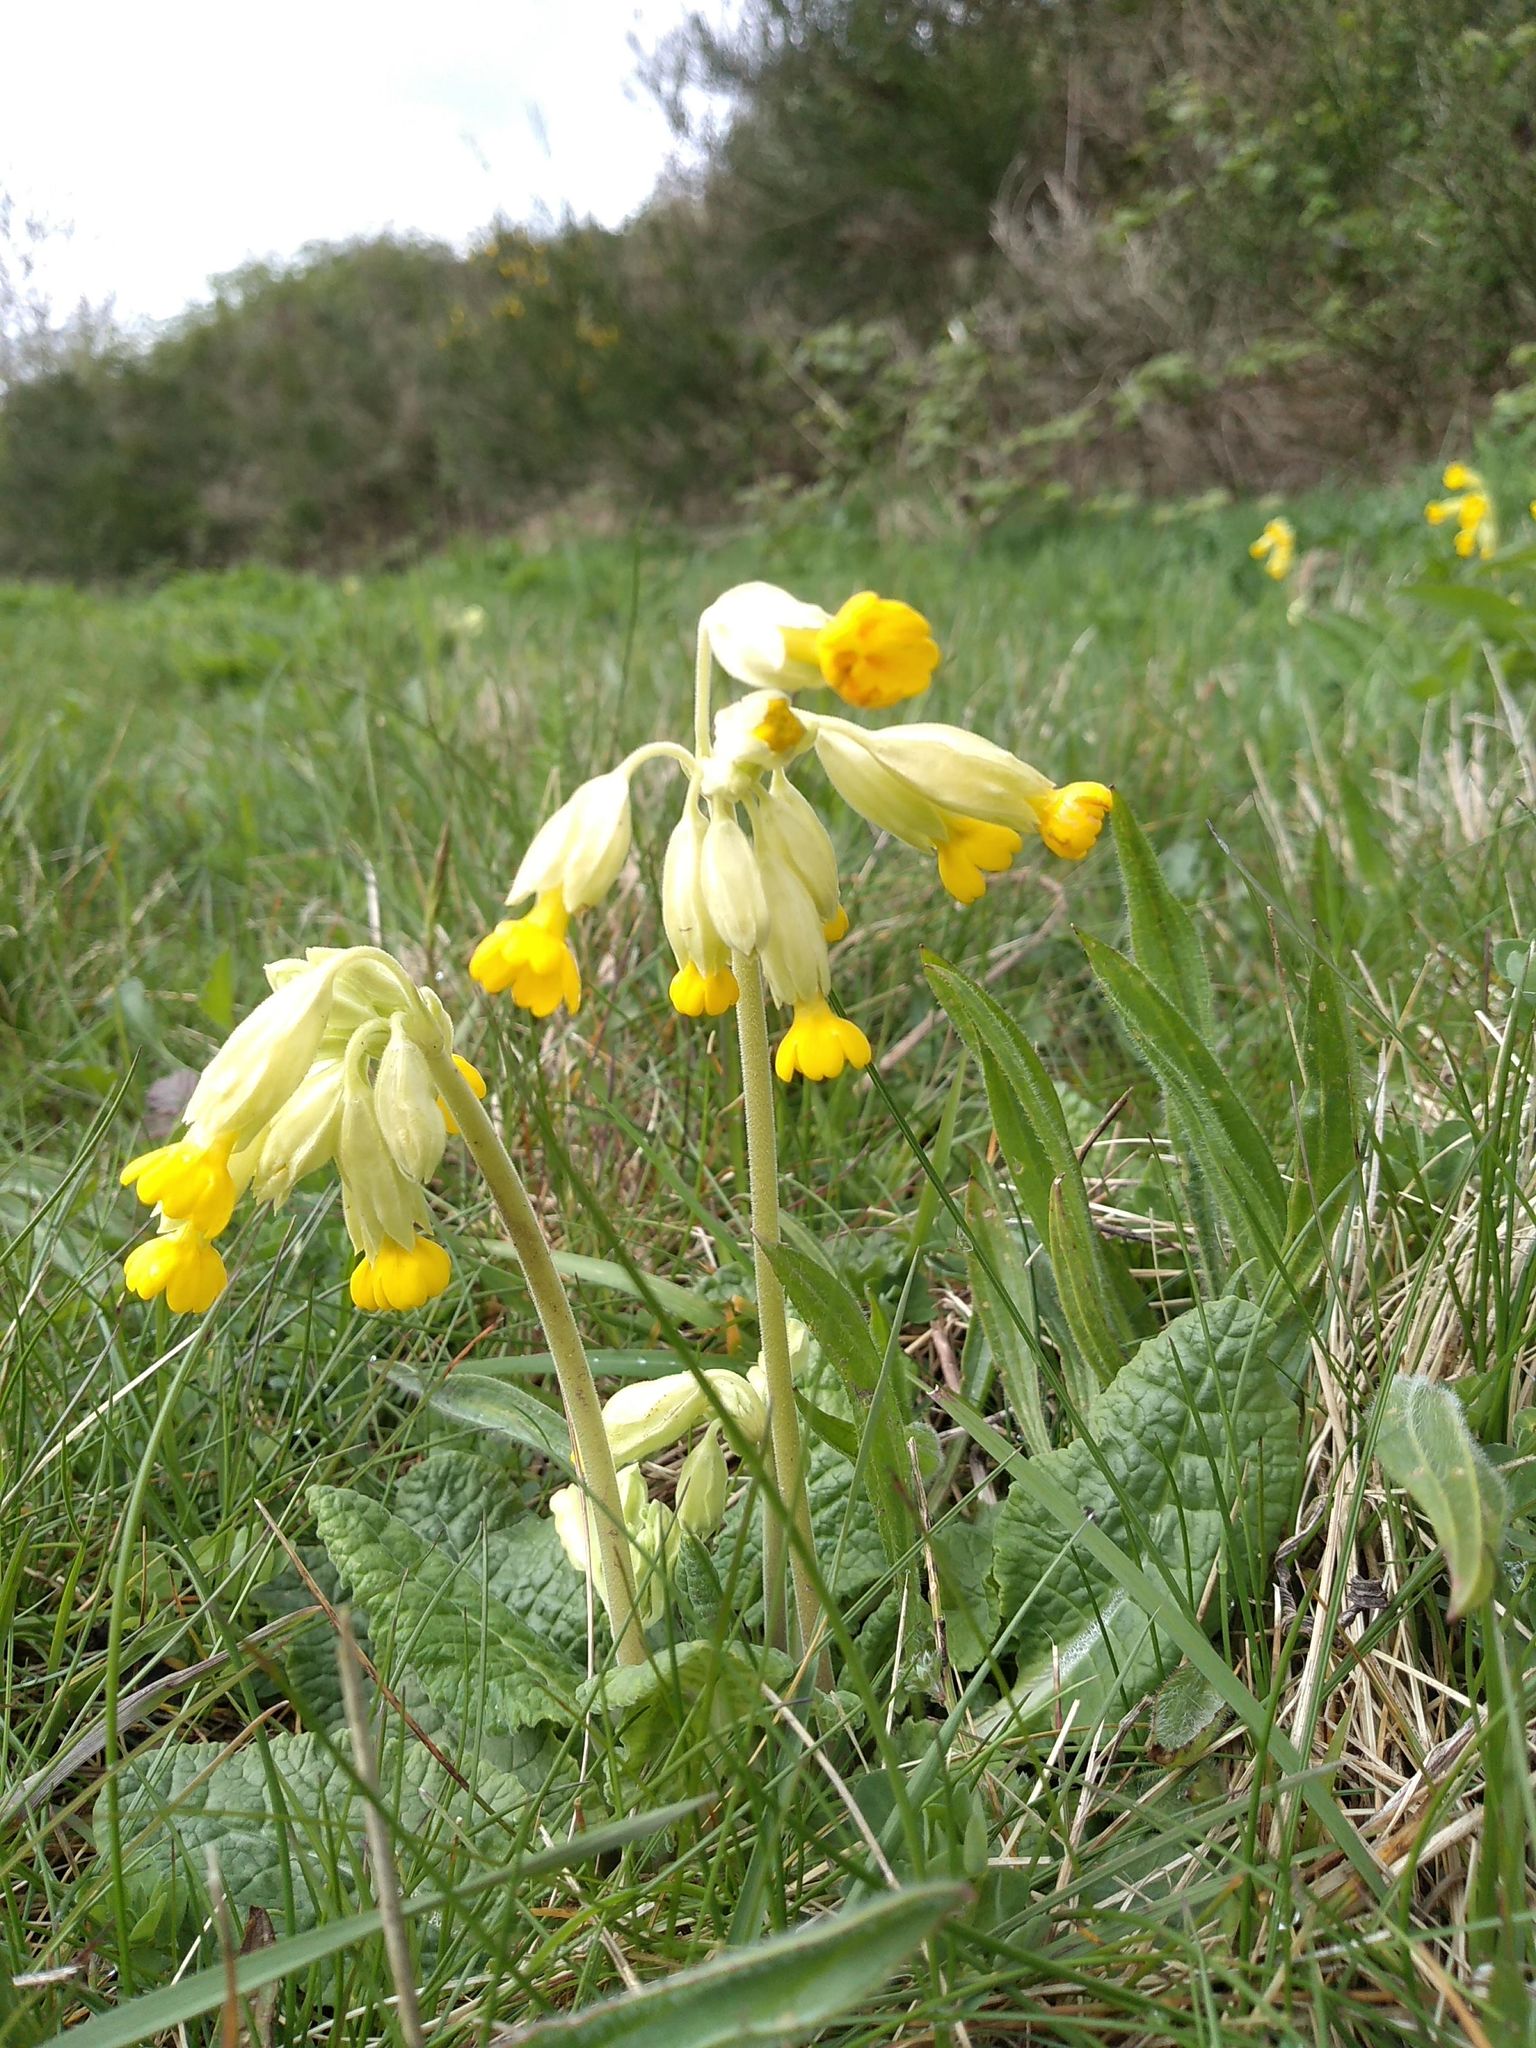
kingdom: Plantae
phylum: Tracheophyta
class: Magnoliopsida
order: Ericales
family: Primulaceae
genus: Primula
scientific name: Primula veris
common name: Cowslip
